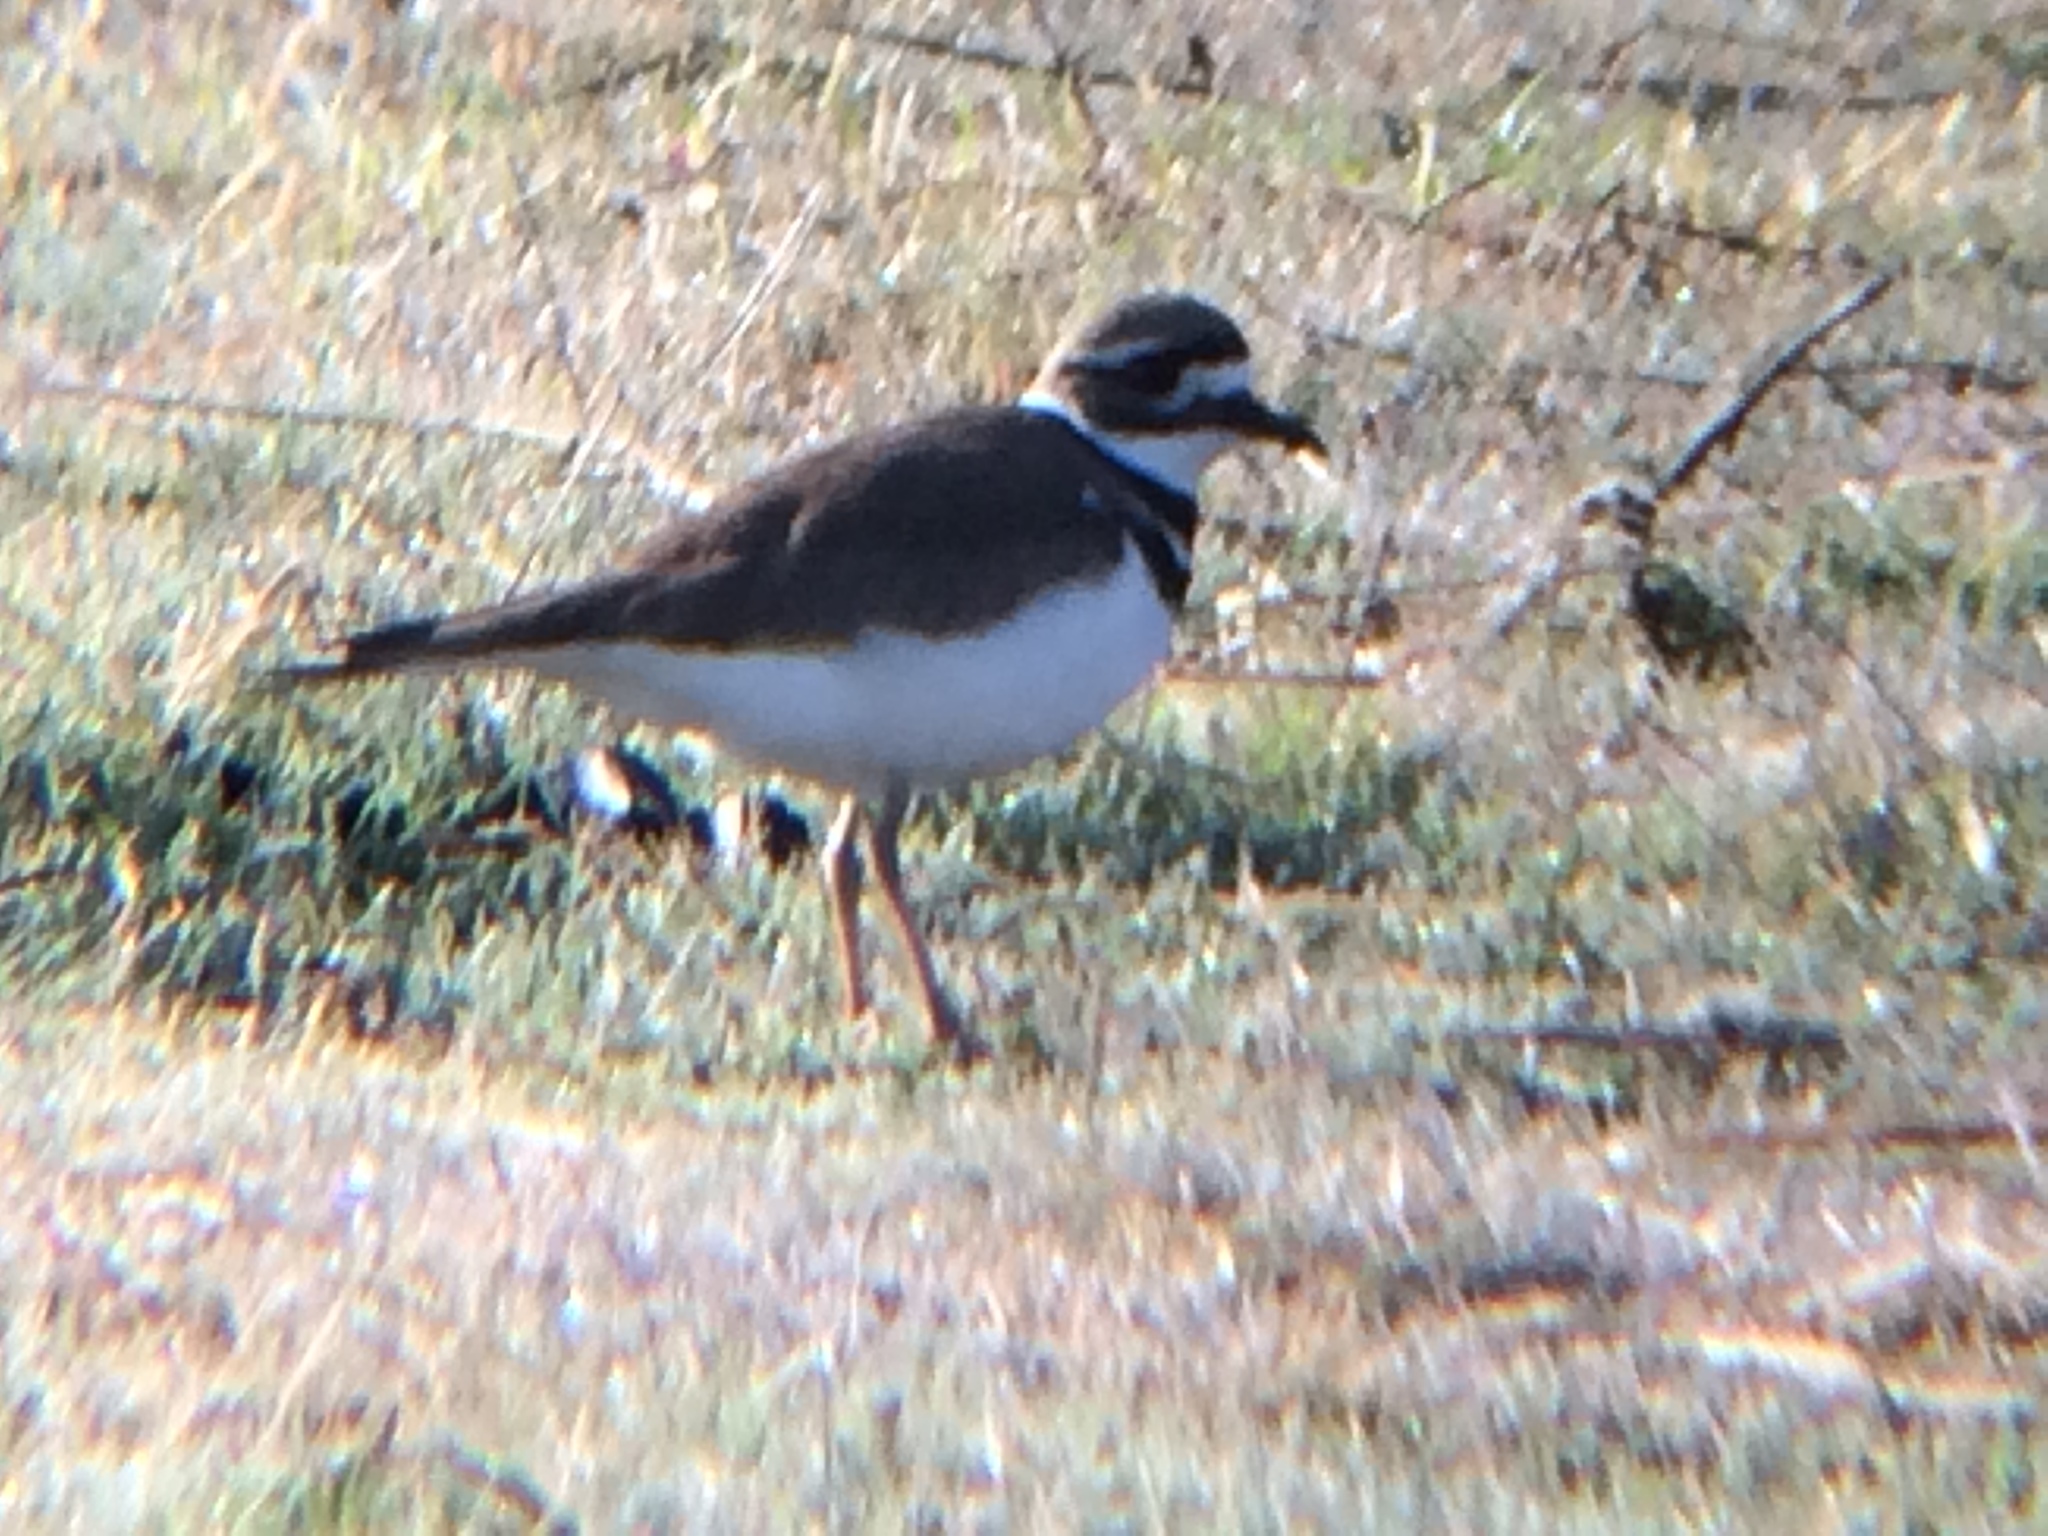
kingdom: Animalia
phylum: Chordata
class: Aves
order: Charadriiformes
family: Charadriidae
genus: Charadrius
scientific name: Charadrius vociferus
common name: Killdeer
